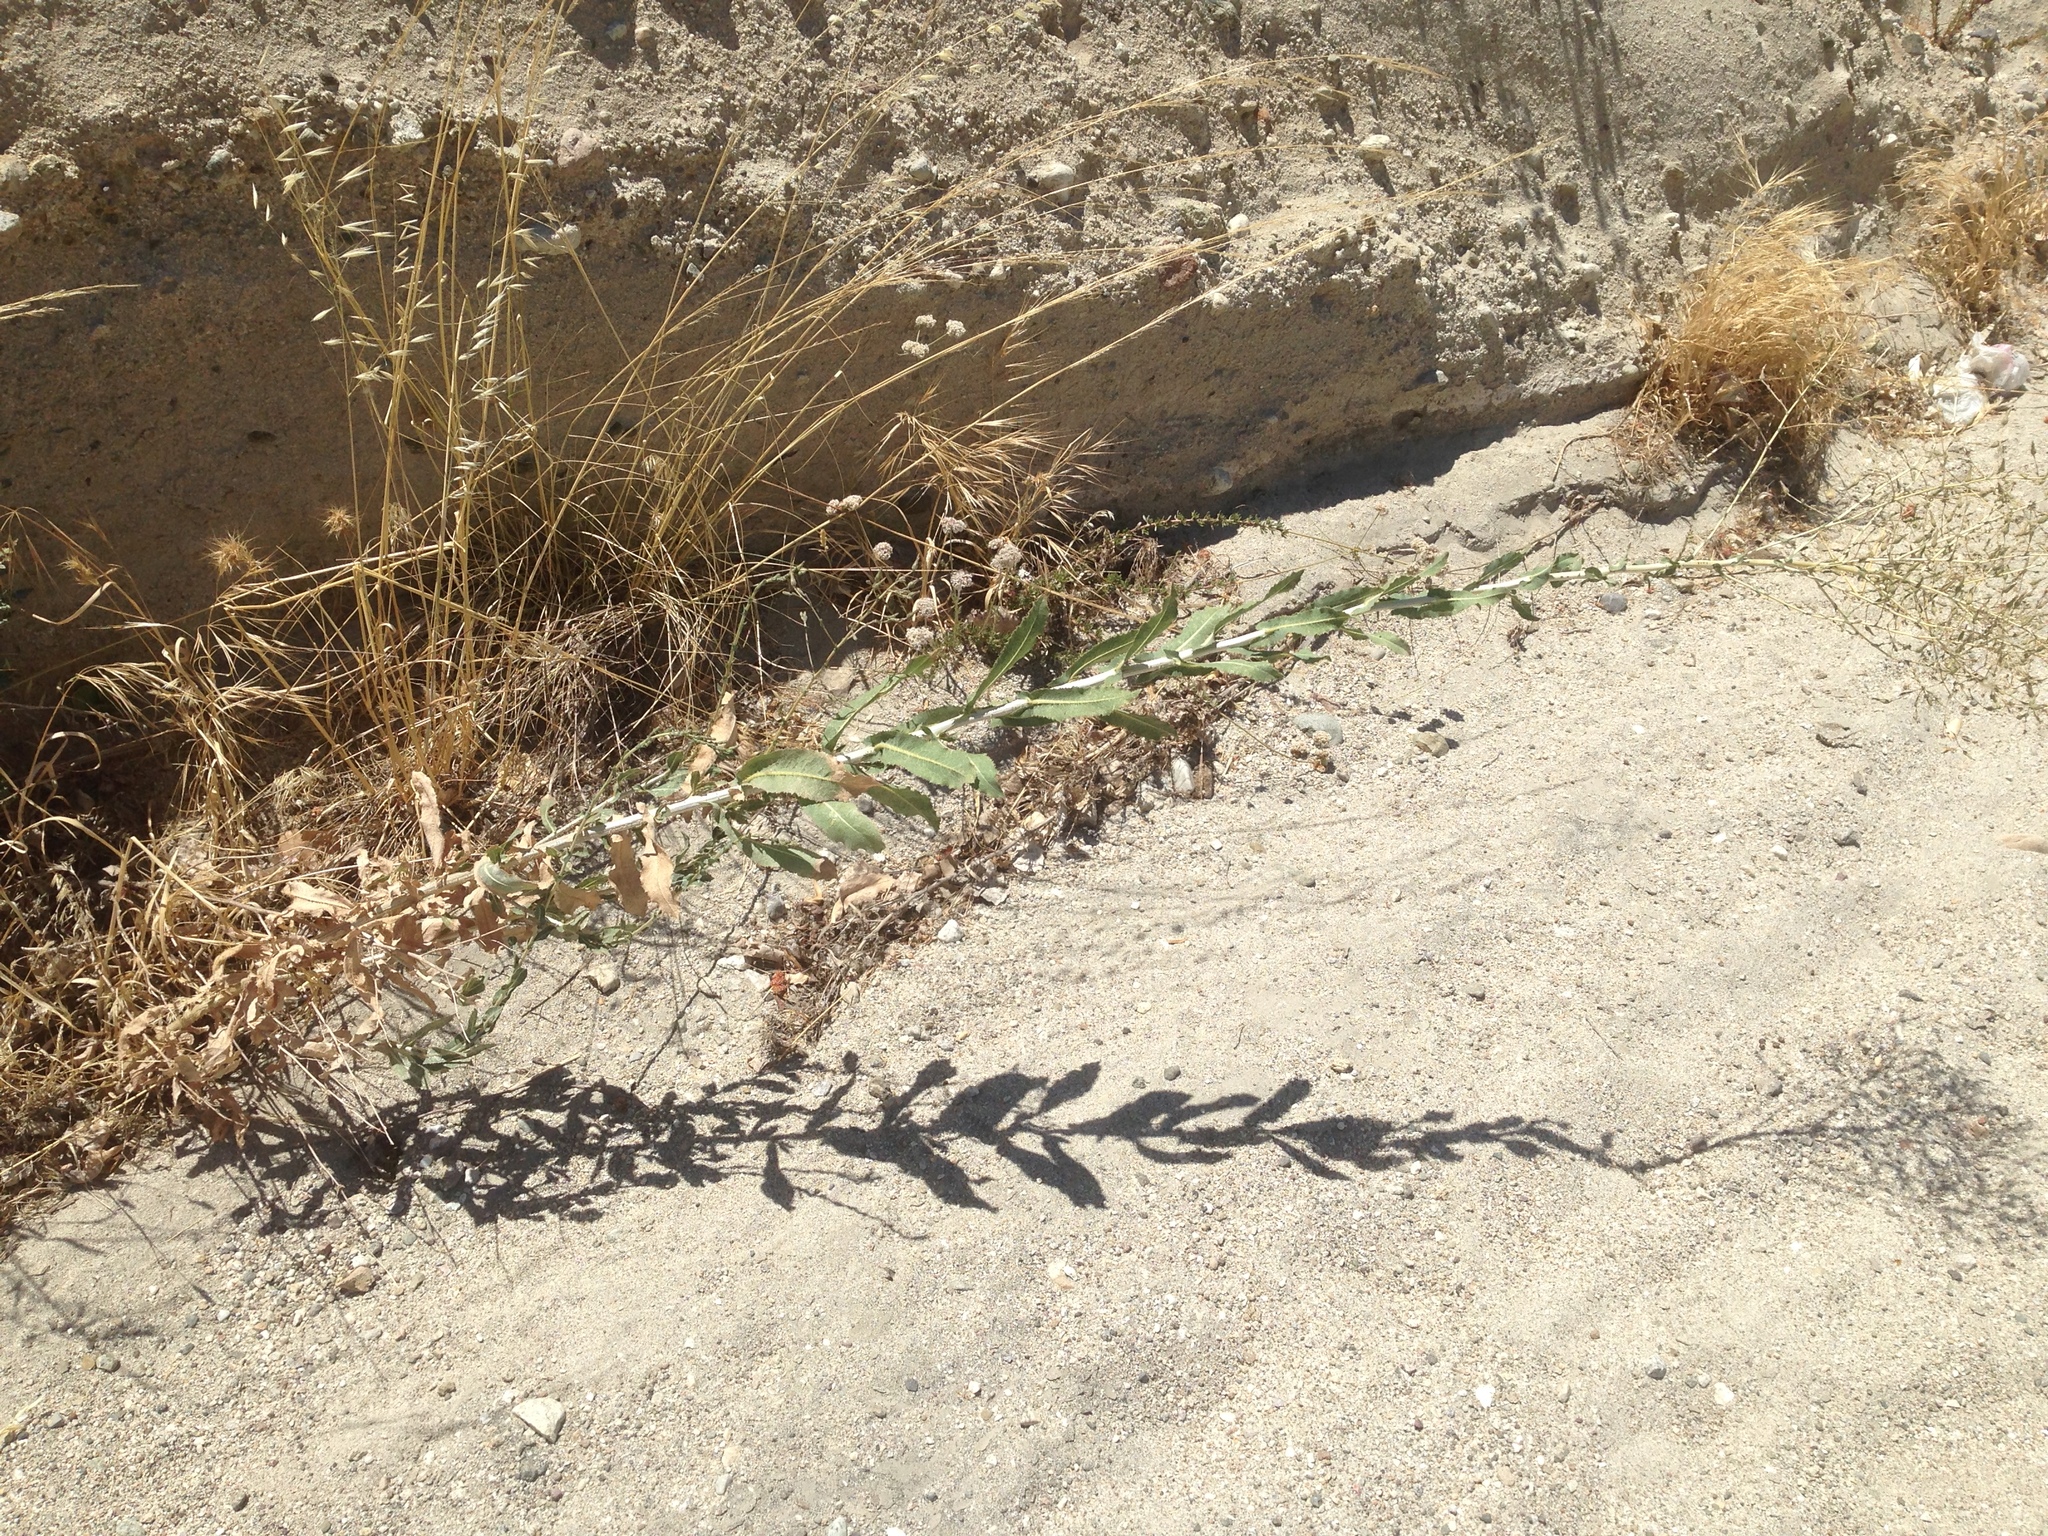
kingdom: Plantae
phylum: Tracheophyta
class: Magnoliopsida
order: Asterales
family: Asteraceae
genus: Lactuca
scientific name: Lactuca serriola
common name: Prickly lettuce
